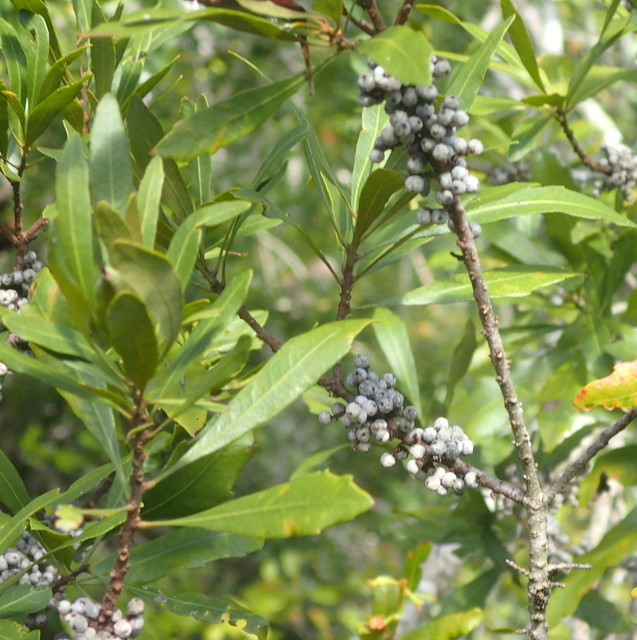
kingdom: Plantae
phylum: Tracheophyta
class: Magnoliopsida
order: Fagales
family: Myricaceae
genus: Morella
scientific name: Morella cerifera
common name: Wax myrtle
